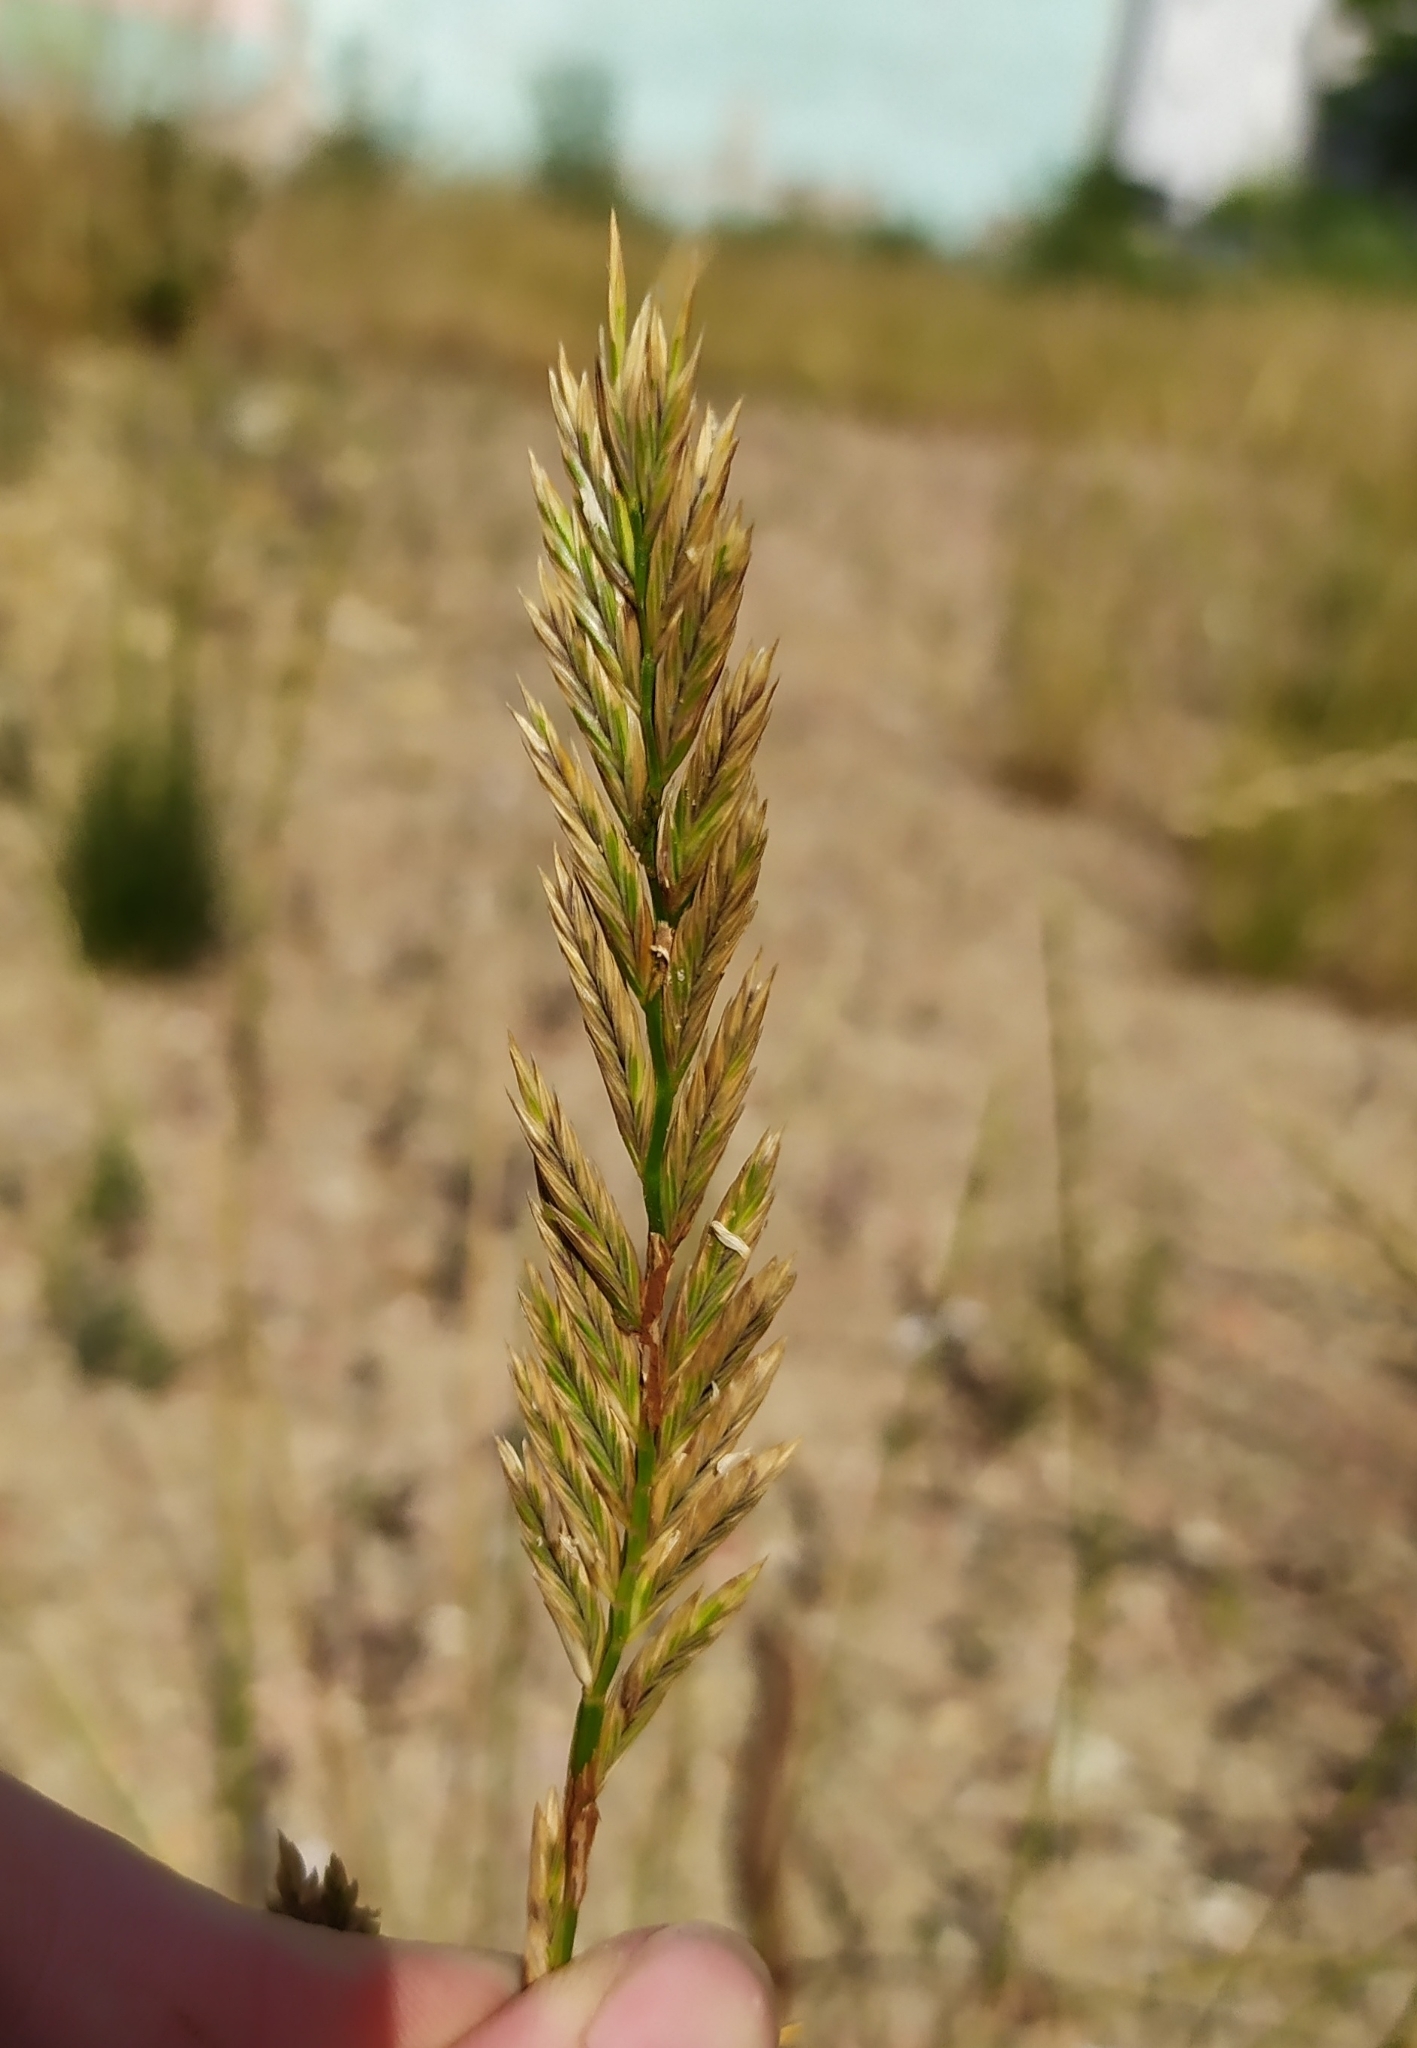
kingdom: Plantae
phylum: Tracheophyta
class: Liliopsida
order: Poales
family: Poaceae
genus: Lolium
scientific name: Lolium perenne
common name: Perennial ryegrass
